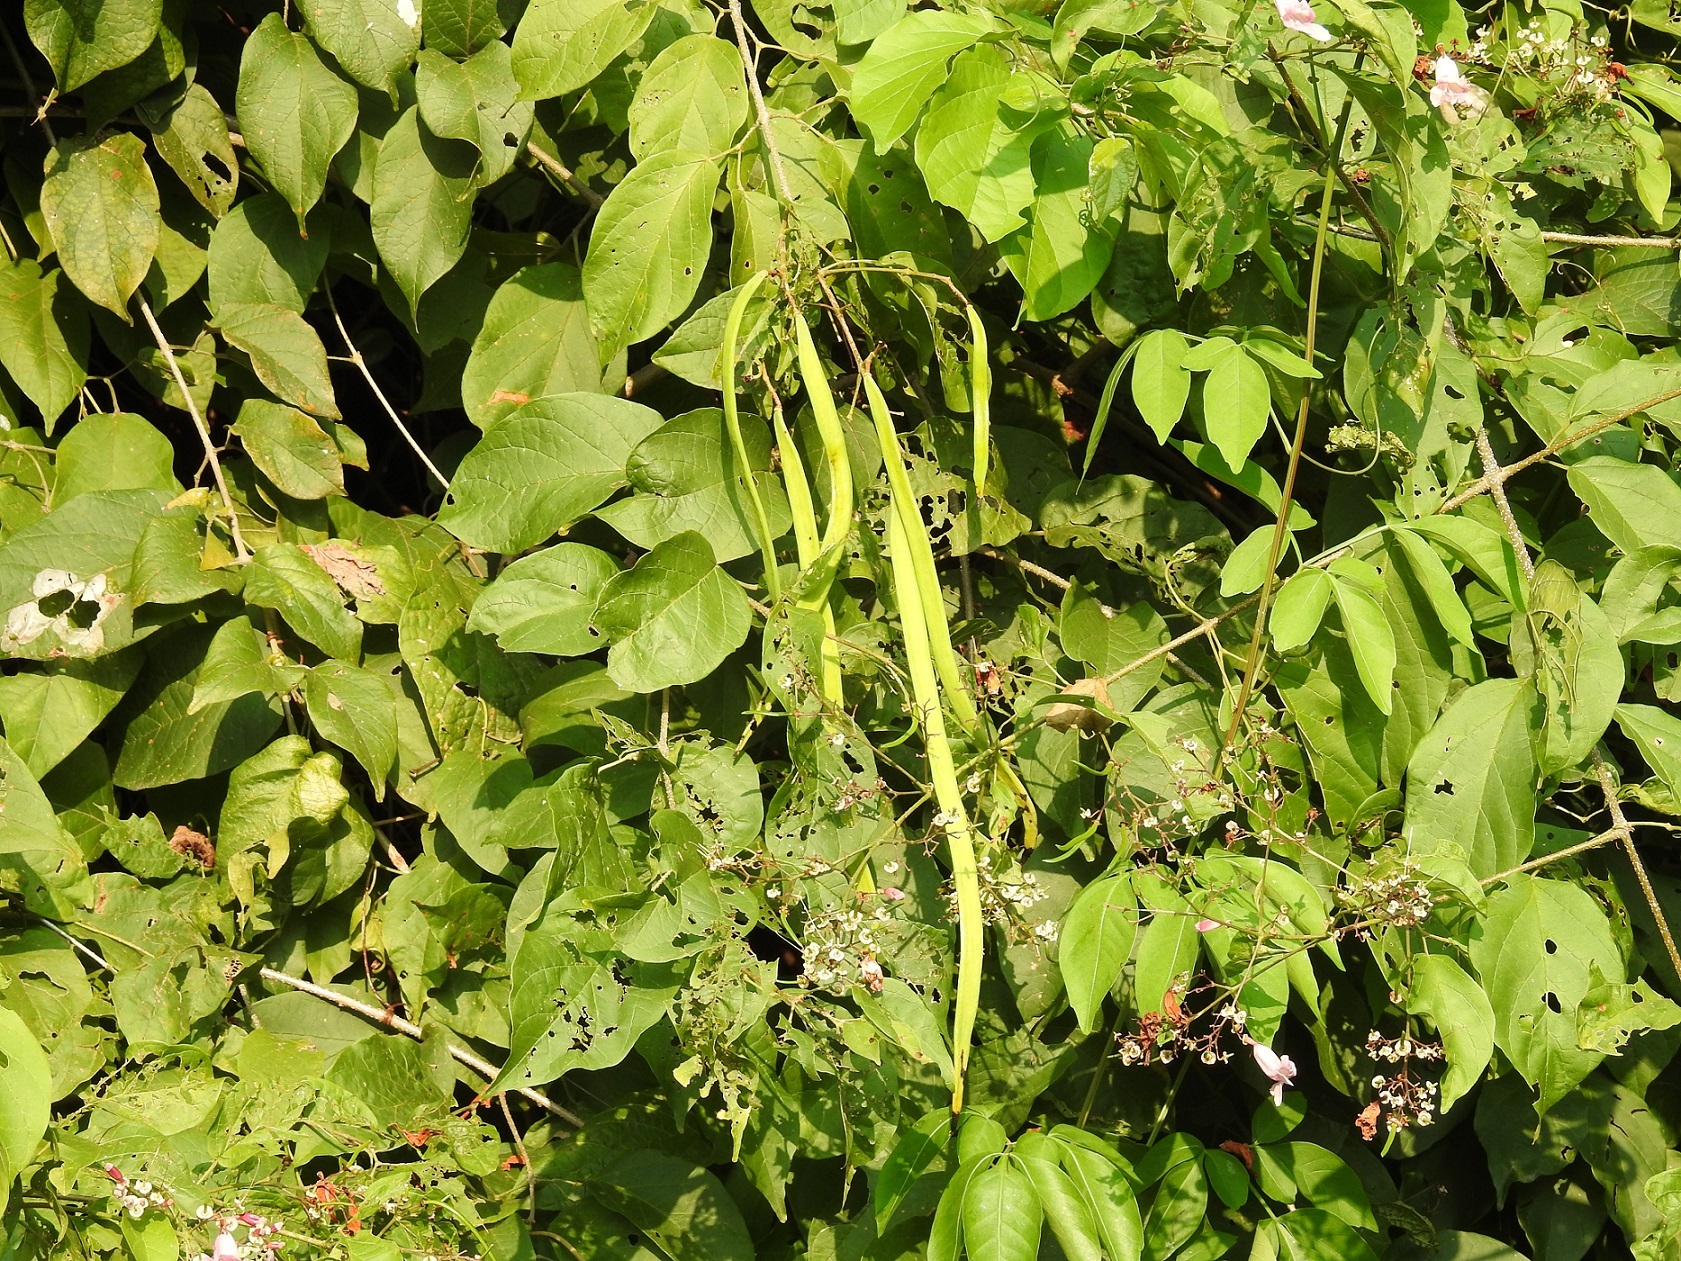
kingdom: Plantae
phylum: Tracheophyta
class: Magnoliopsida
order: Lamiales
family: Bignoniaceae
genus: Fridericia
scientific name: Fridericia patellifera
